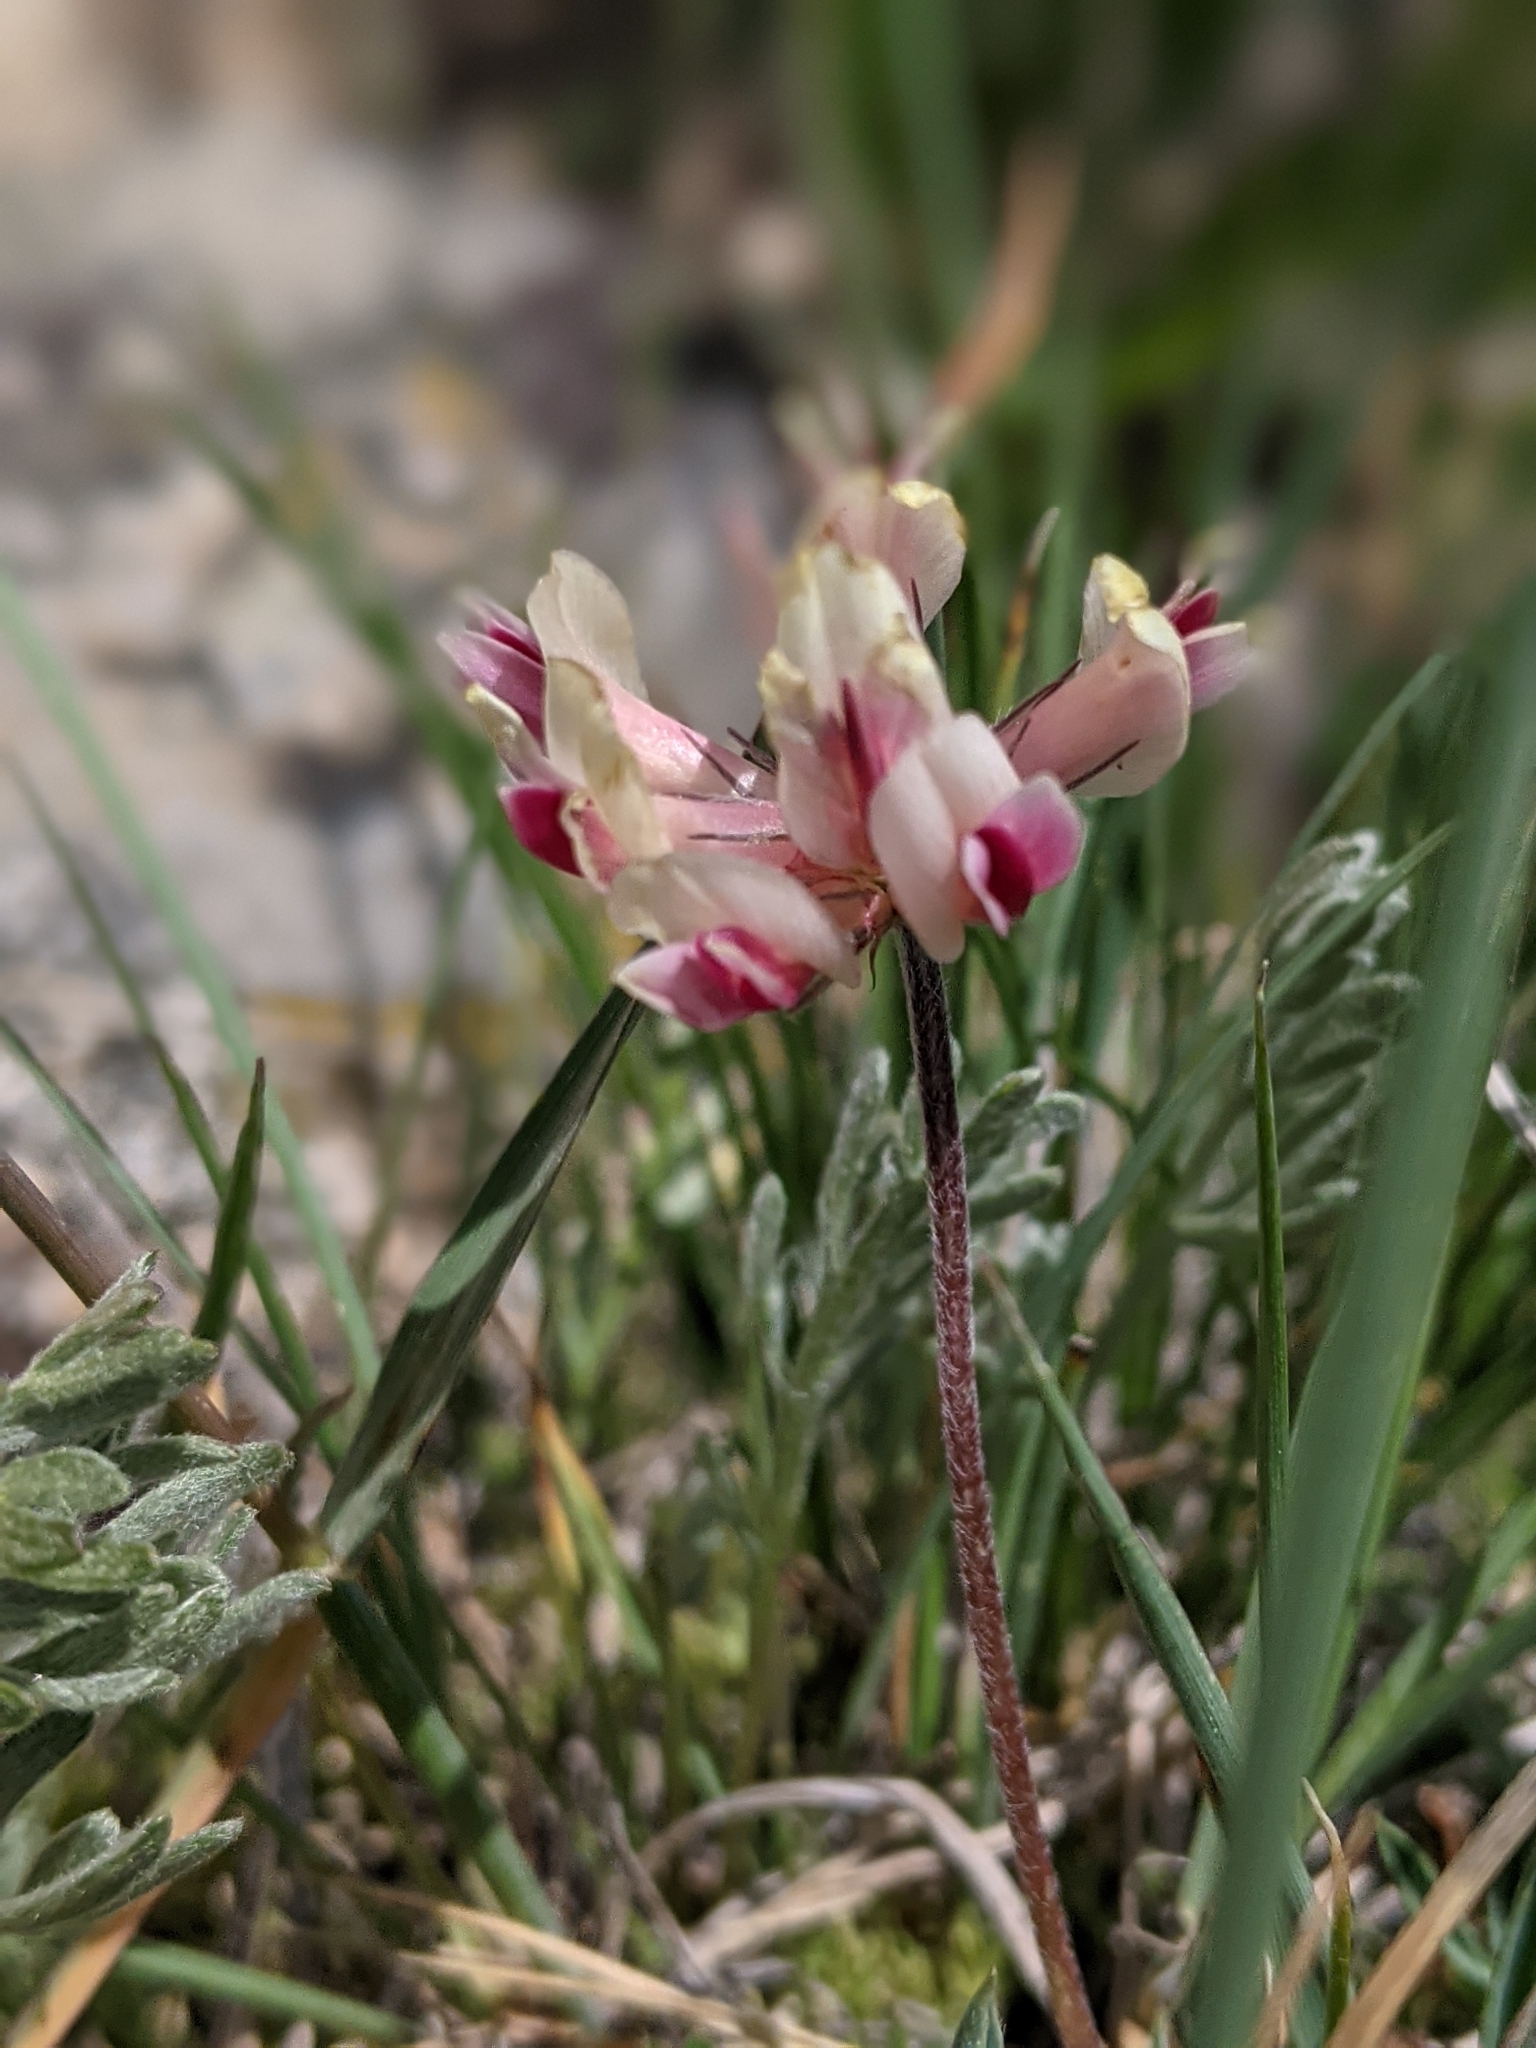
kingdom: Plantae
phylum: Tracheophyta
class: Magnoliopsida
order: Fabales
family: Fabaceae
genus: Trifolium
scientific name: Trifolium dasyphyllum
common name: Whip-root clover
